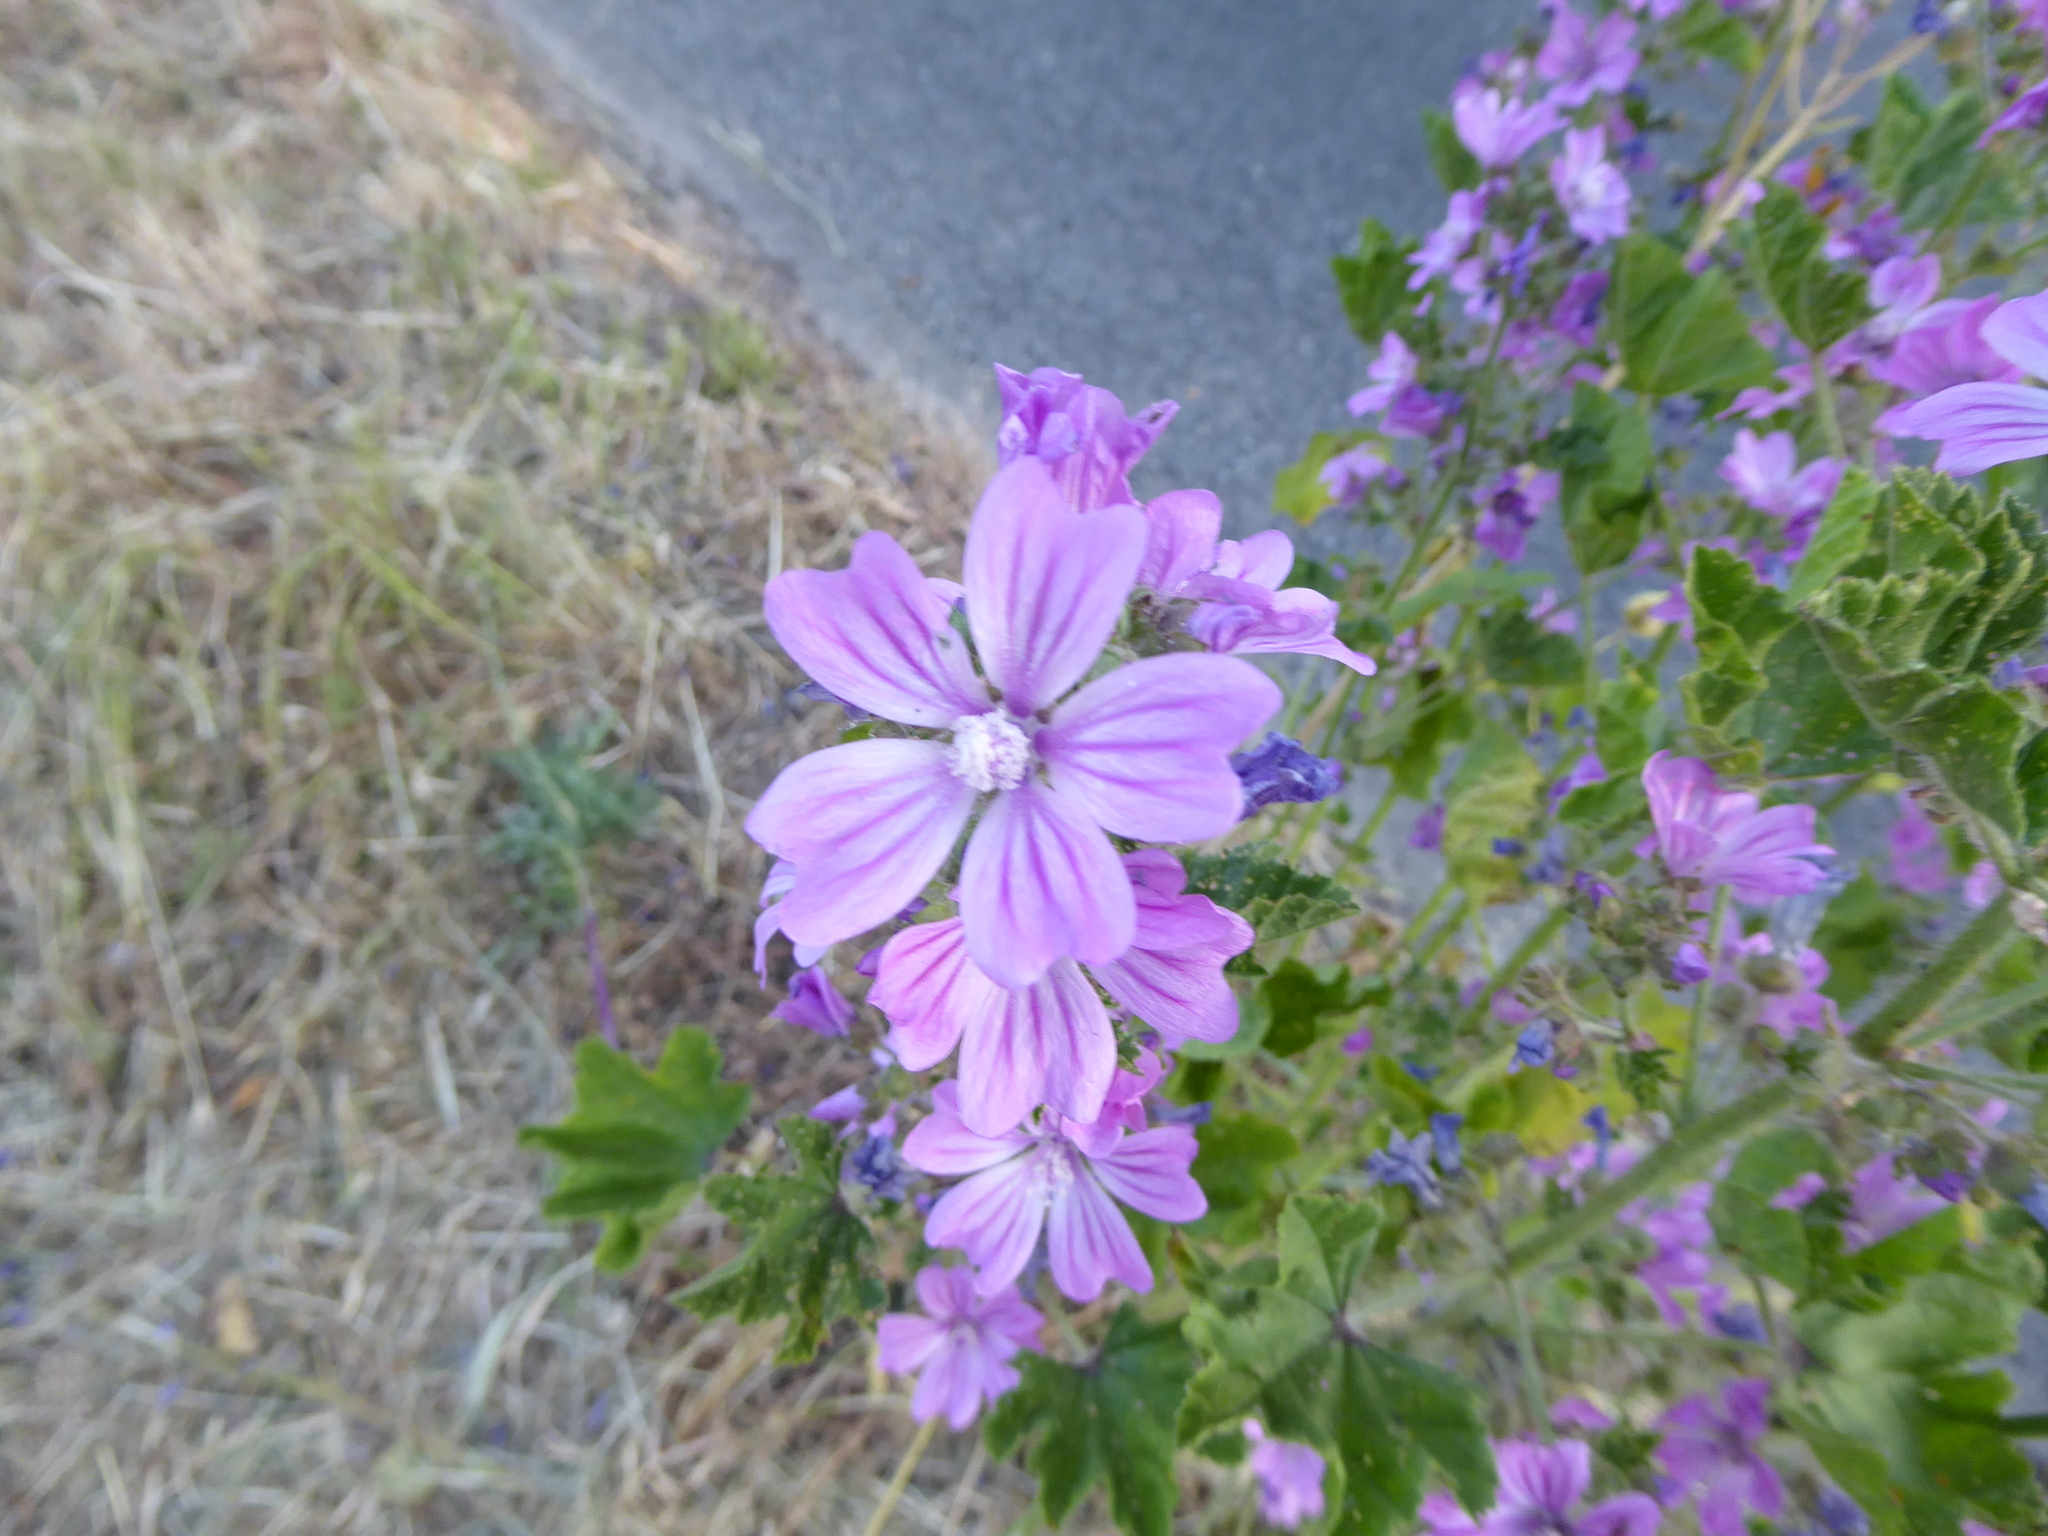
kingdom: Plantae
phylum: Tracheophyta
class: Magnoliopsida
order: Malvales
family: Malvaceae
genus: Malva
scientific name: Malva sylvestris
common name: Common mallow
